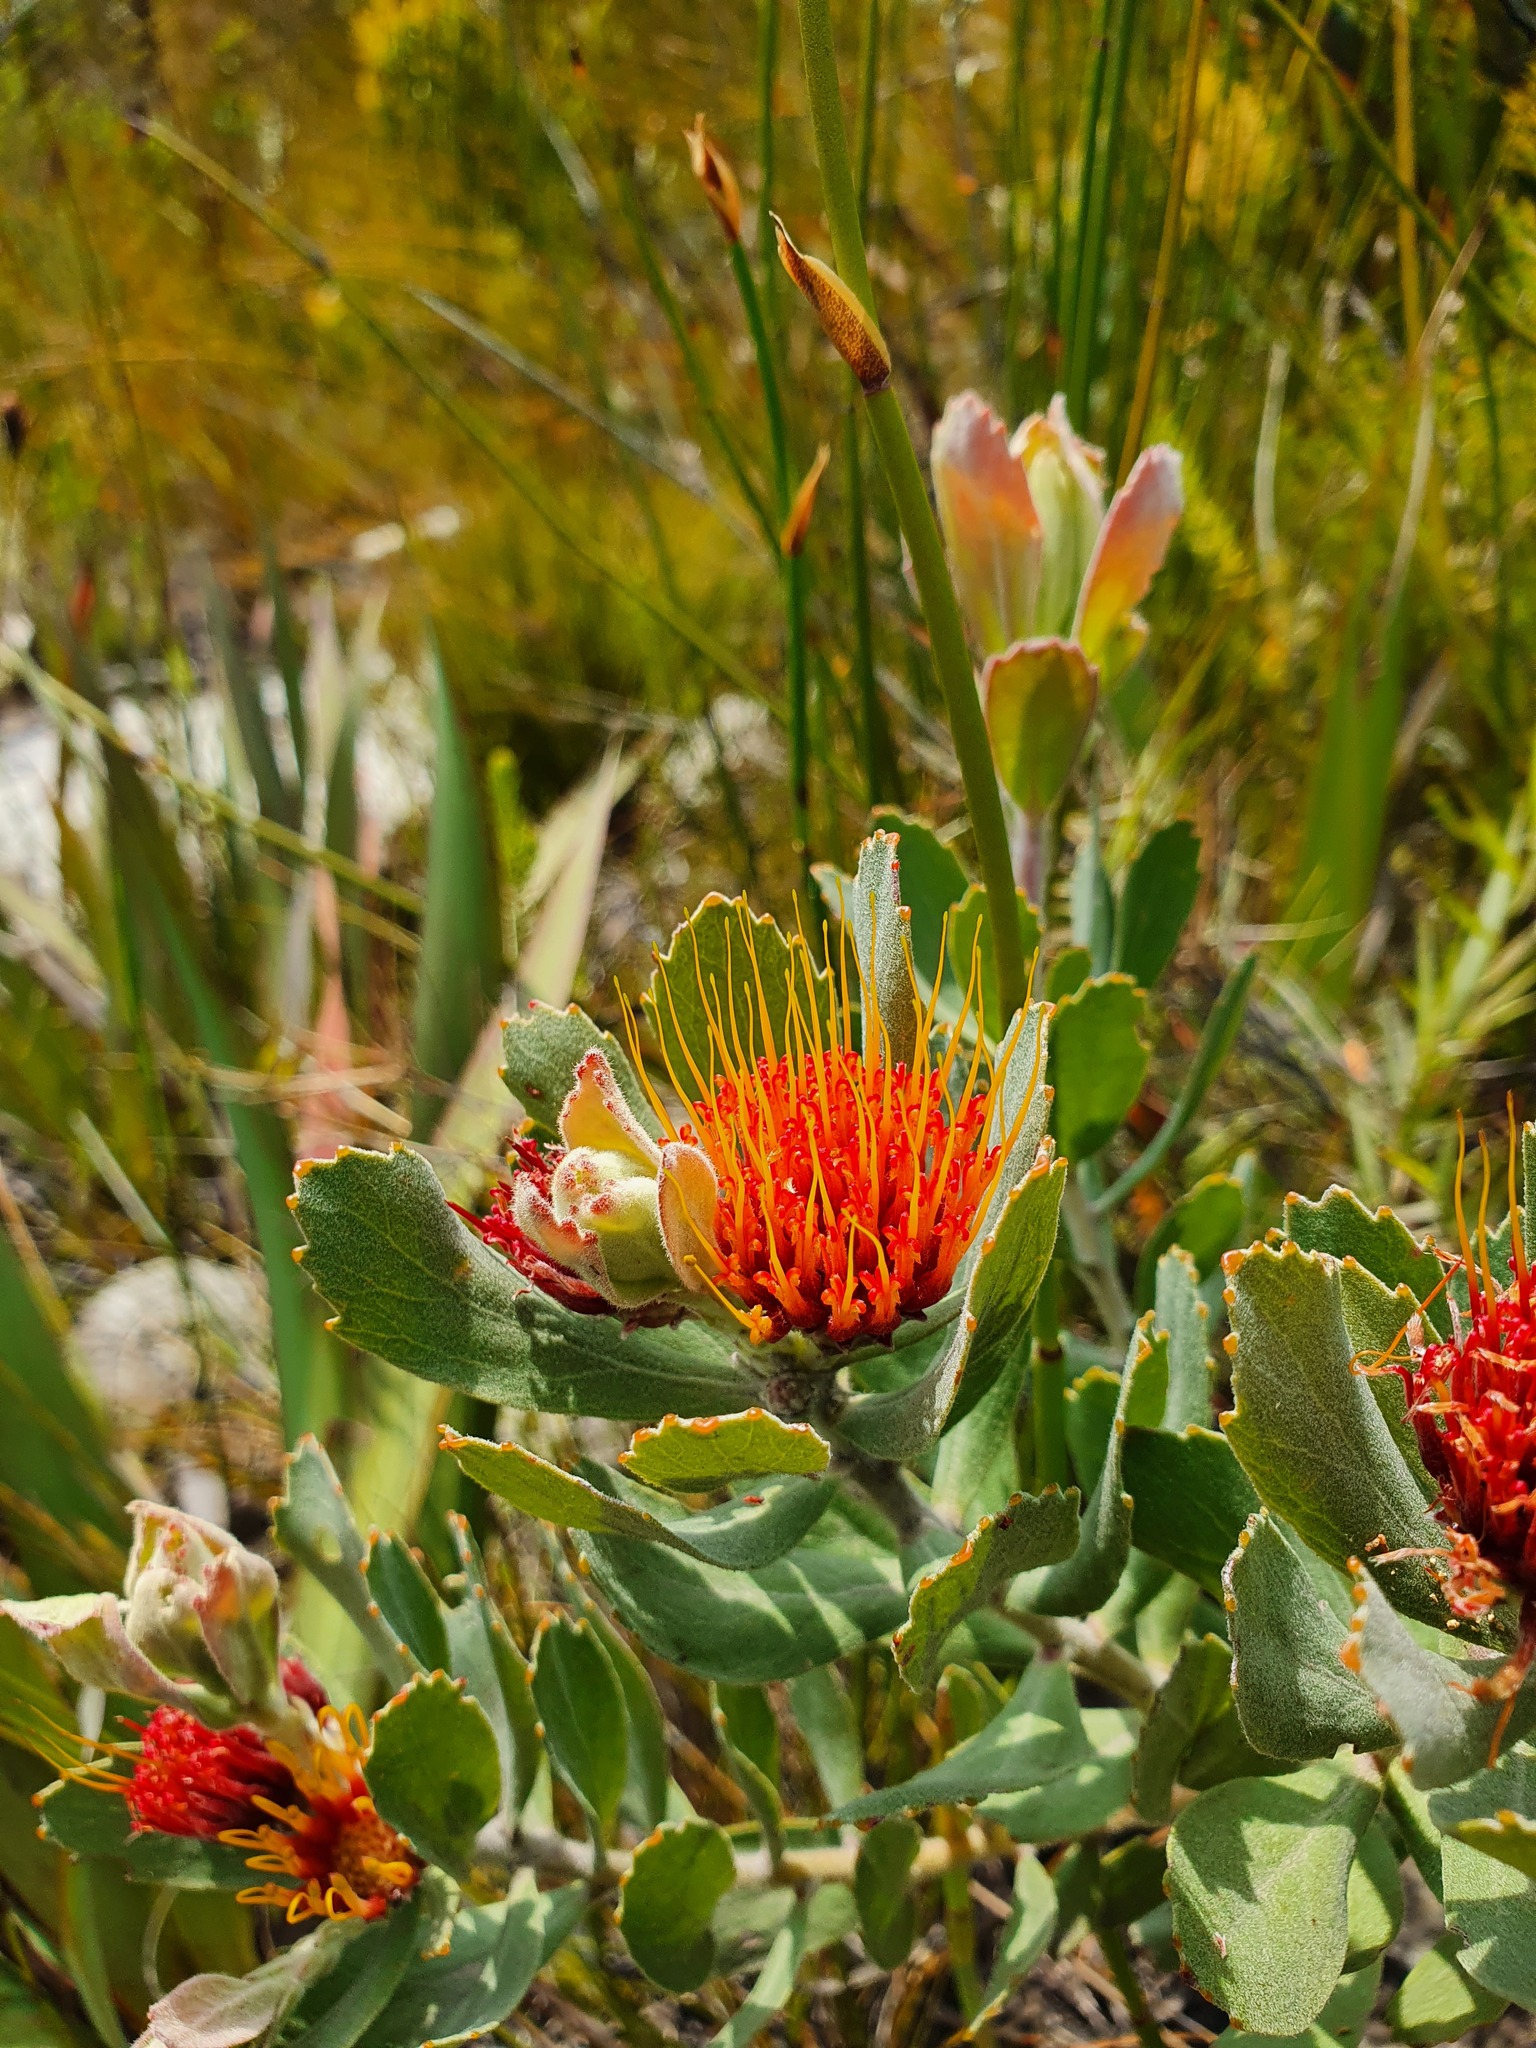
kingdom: Plantae
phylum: Tracheophyta
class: Magnoliopsida
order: Proteales
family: Proteaceae
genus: Leucospermum
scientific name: Leucospermum mundii
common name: Langeberg pincushion
